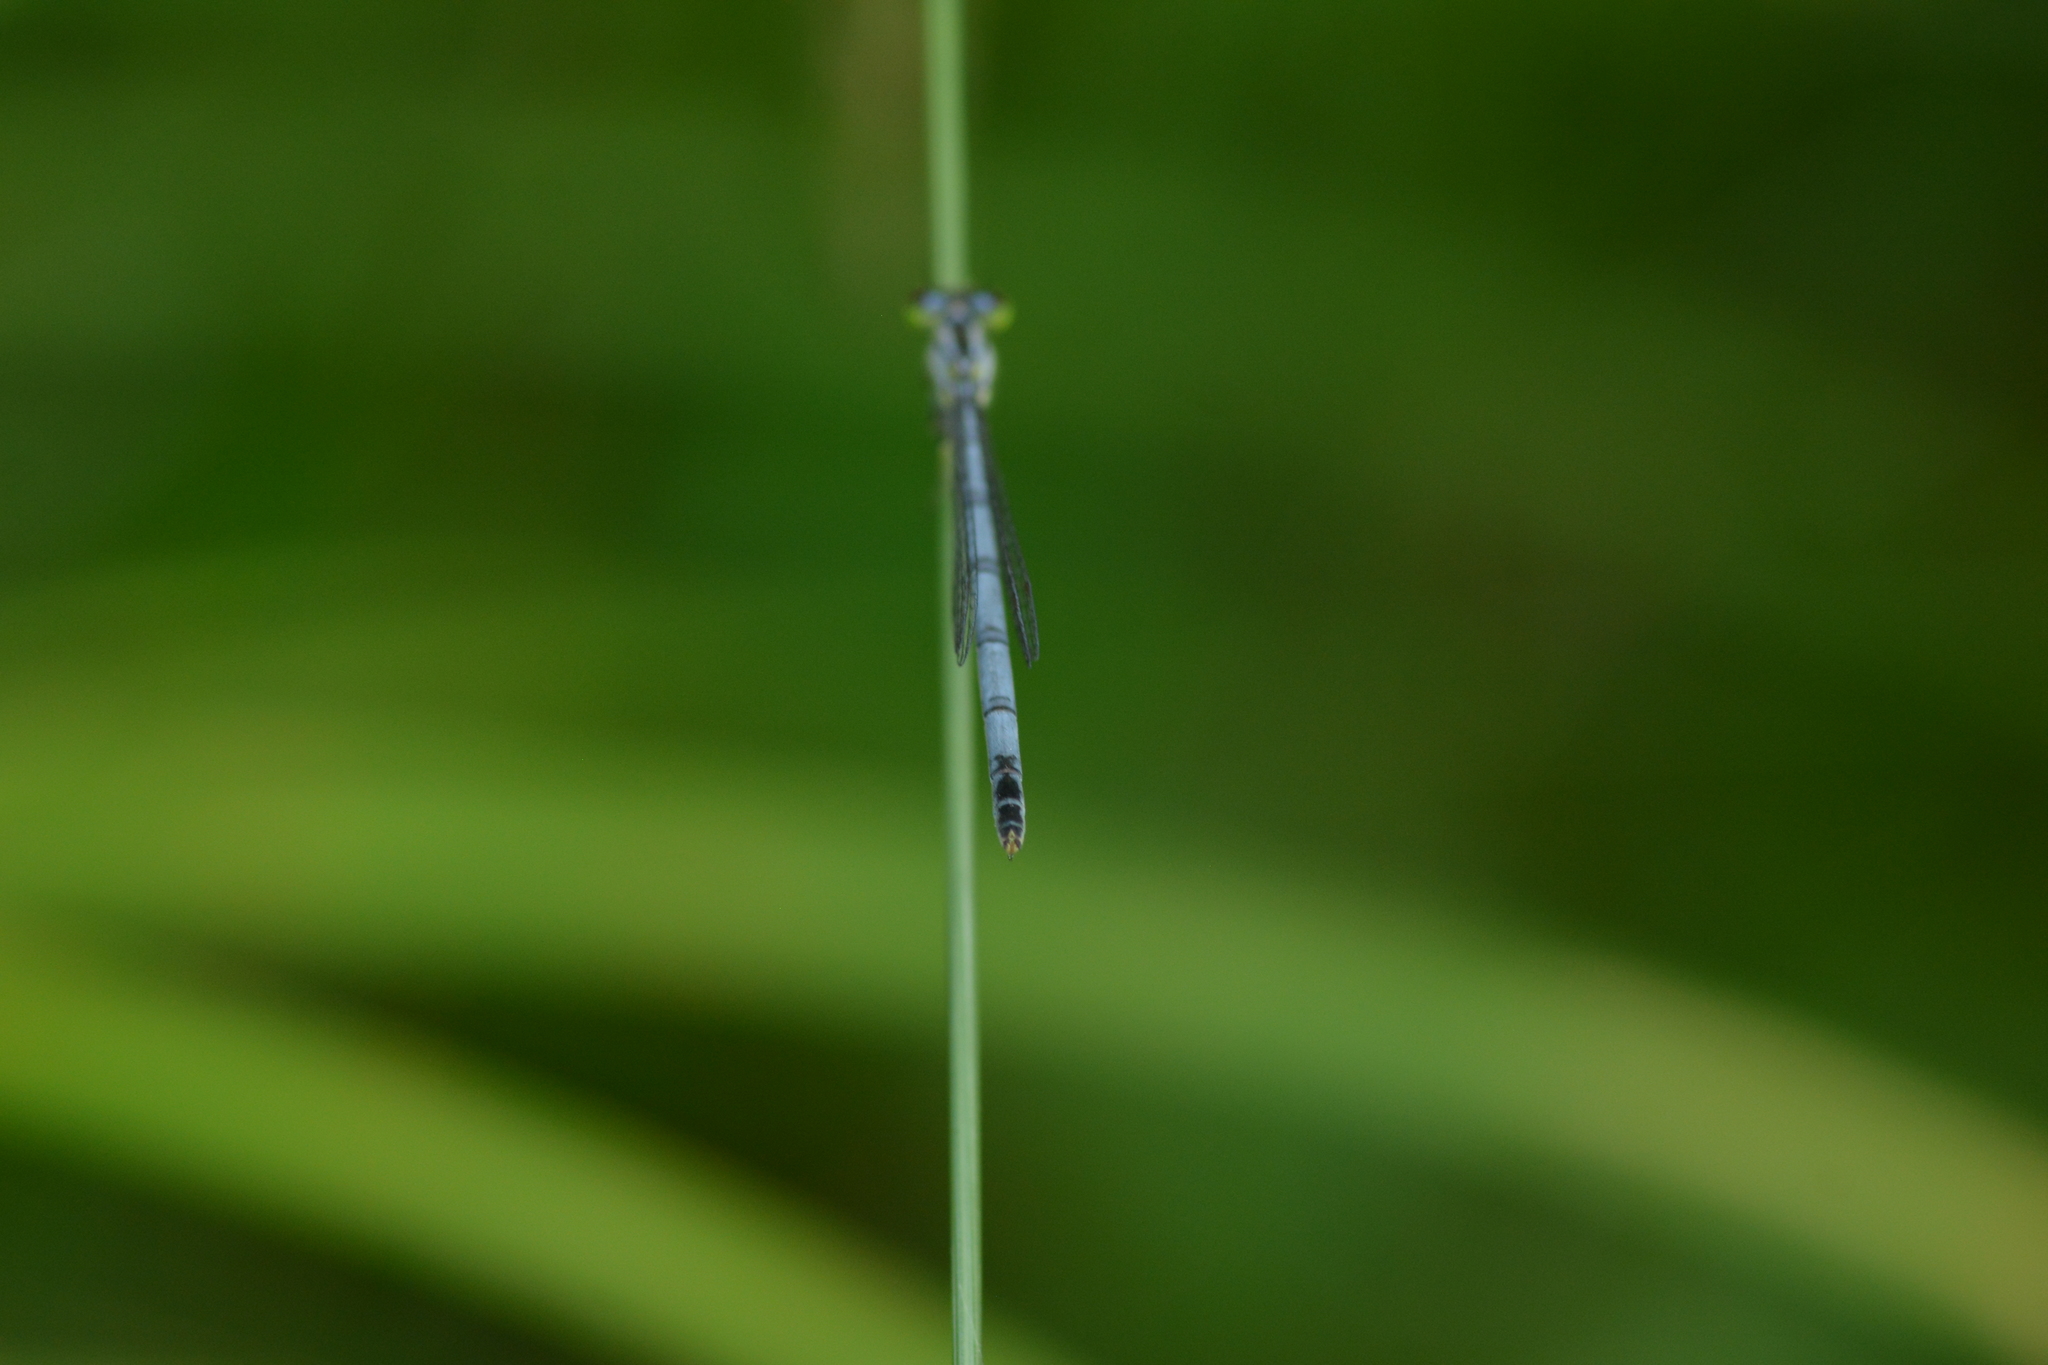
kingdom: Animalia
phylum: Arthropoda
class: Insecta
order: Odonata
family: Coenagrionidae
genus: Ischnura
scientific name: Ischnura verticalis
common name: Eastern forktail
